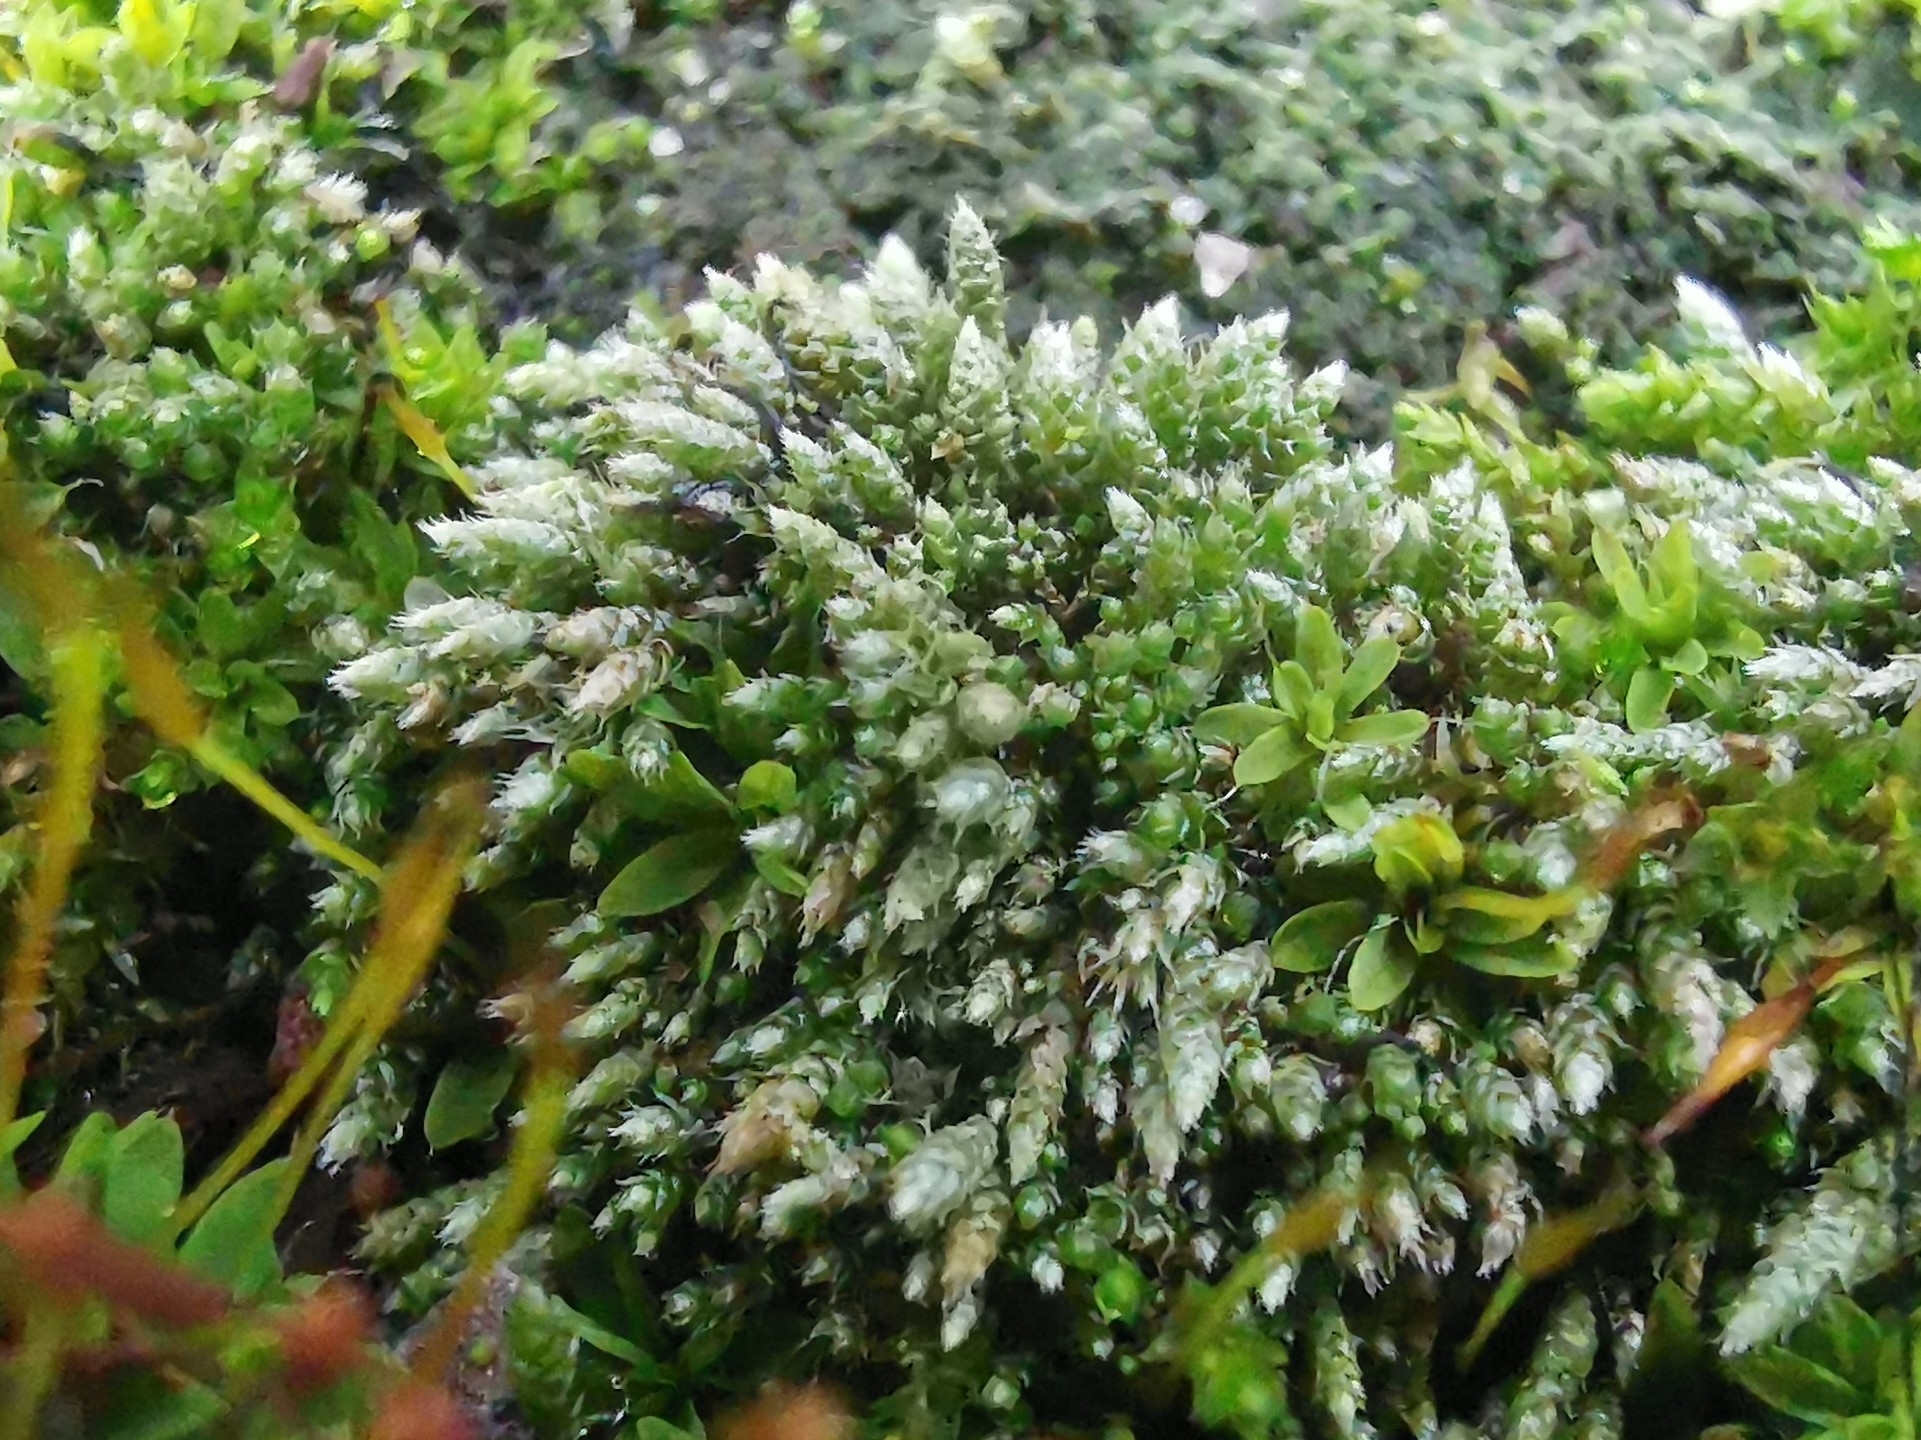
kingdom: Plantae
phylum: Bryophyta
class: Bryopsida
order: Bryales
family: Bryaceae
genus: Bryum
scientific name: Bryum argenteum
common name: Silver-moss
